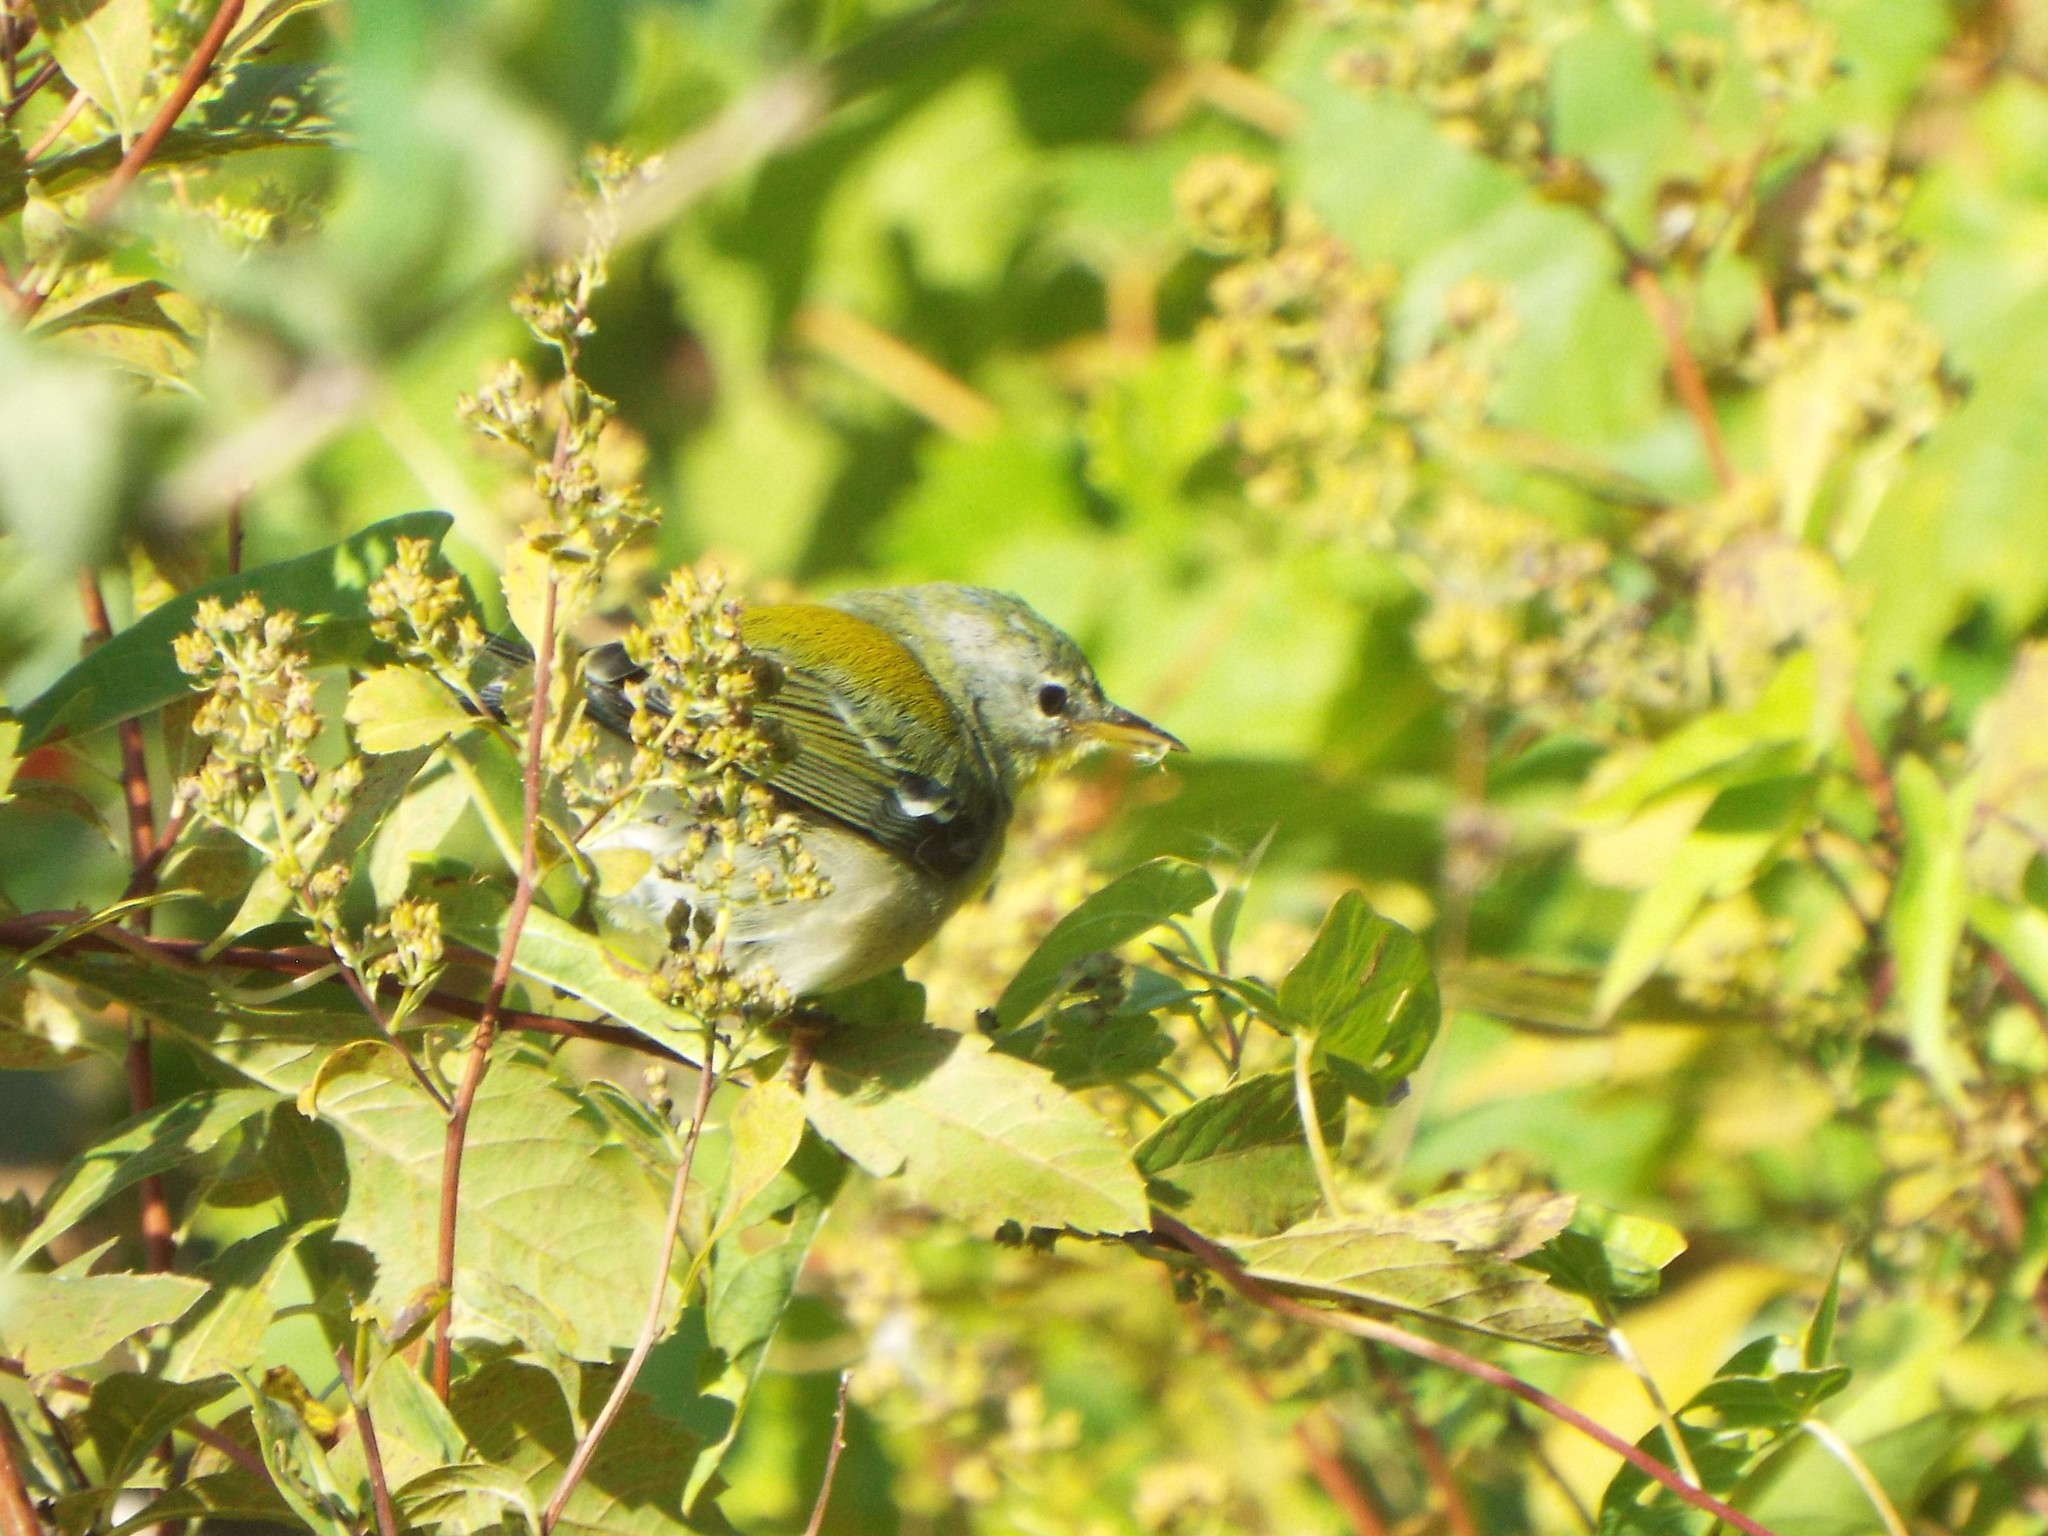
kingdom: Animalia
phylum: Chordata
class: Aves
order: Passeriformes
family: Parulidae
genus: Setophaga
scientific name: Setophaga americana
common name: Northern parula
